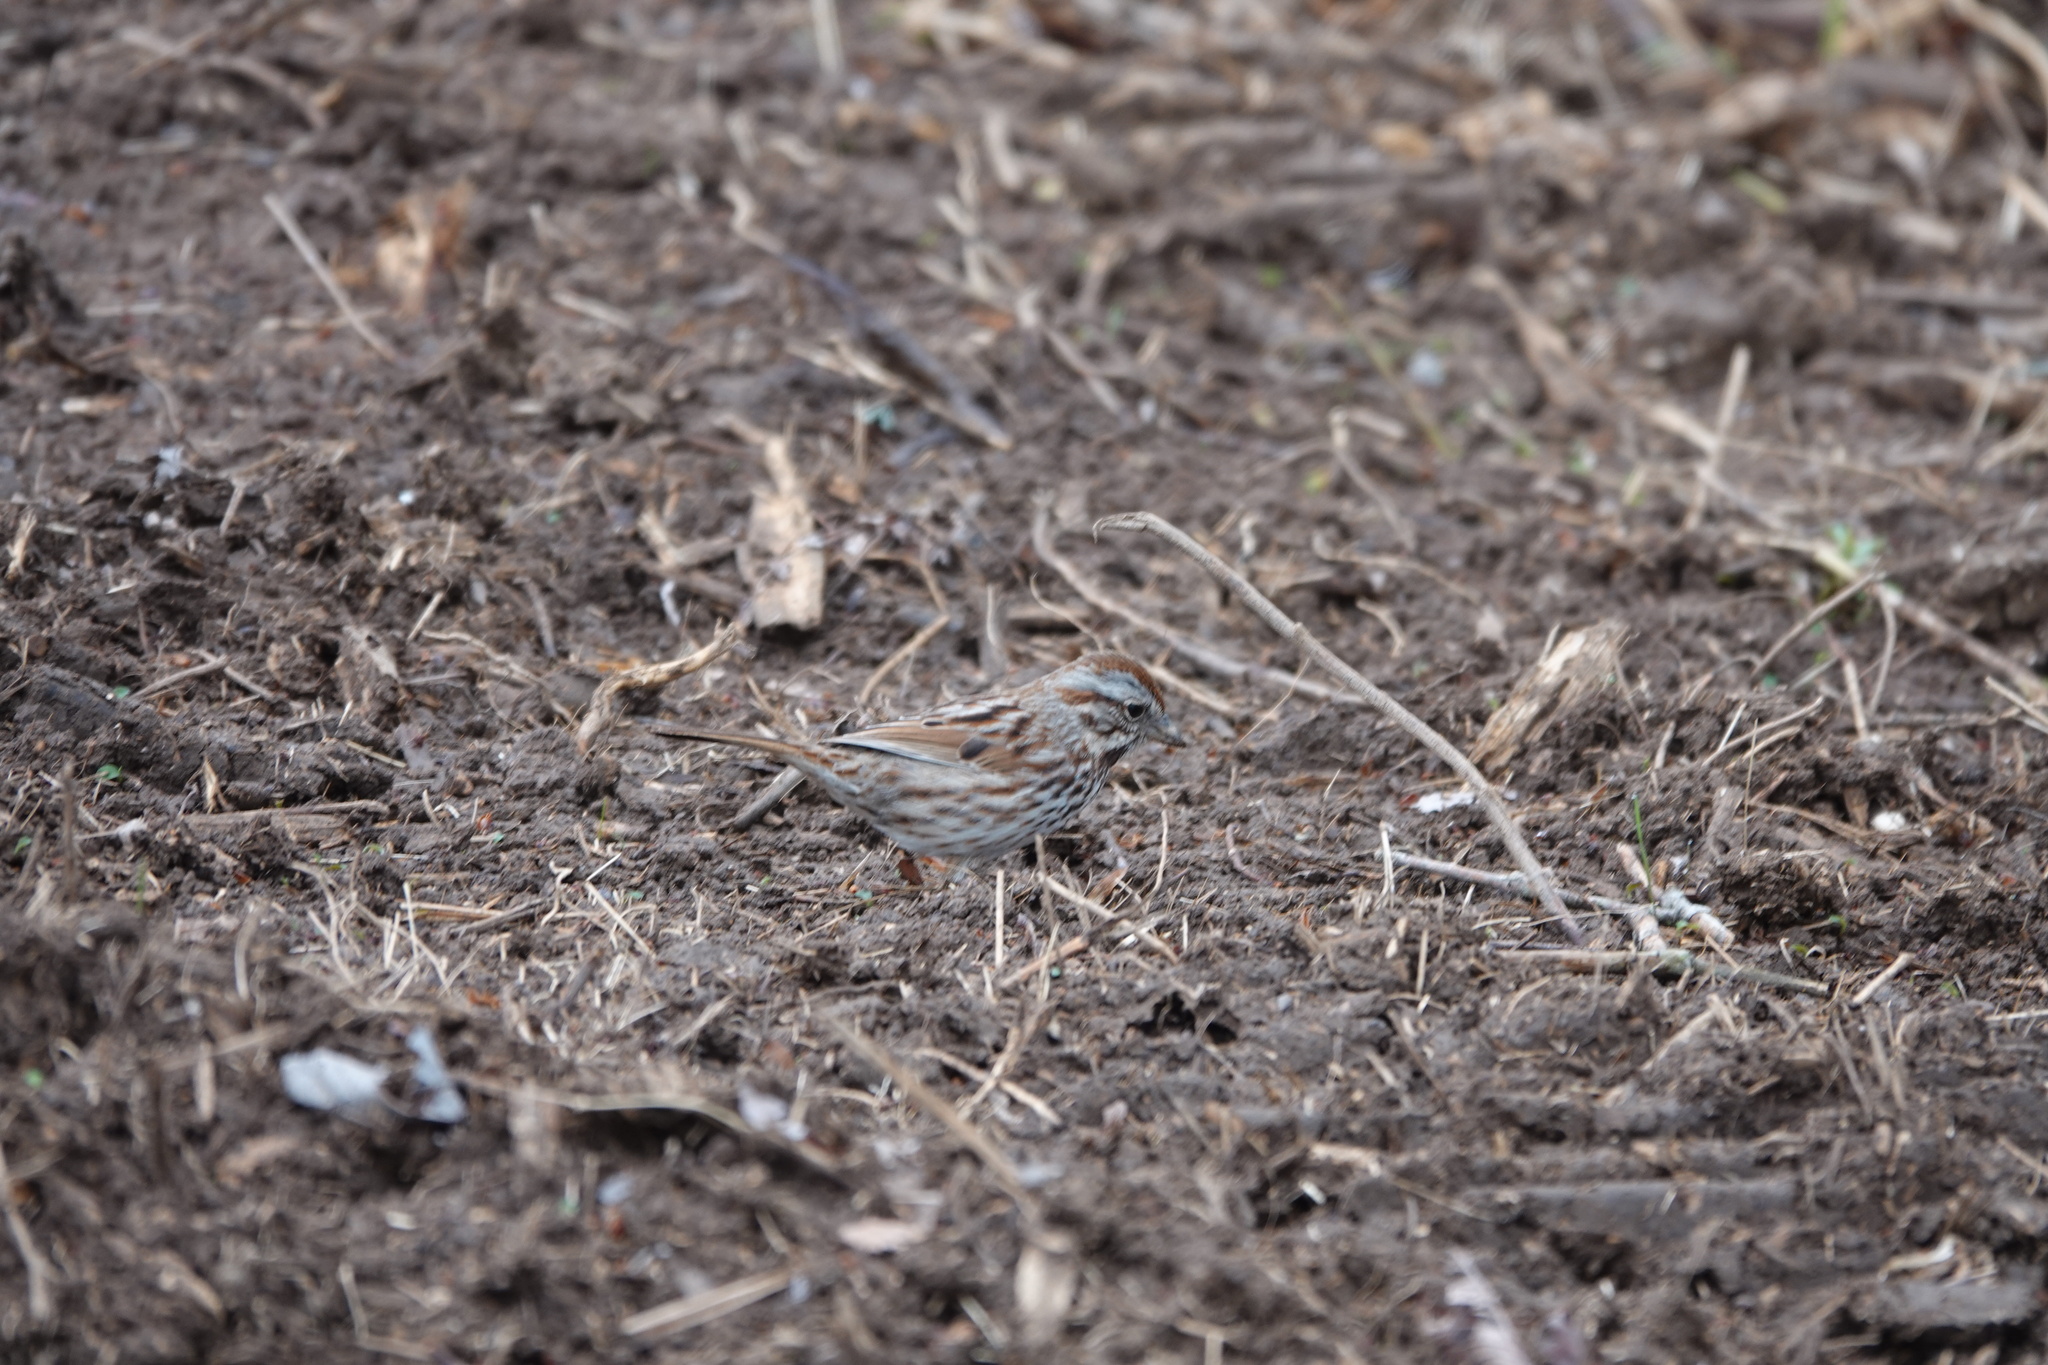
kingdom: Animalia
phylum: Chordata
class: Aves
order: Passeriformes
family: Passerellidae
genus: Melospiza
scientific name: Melospiza melodia
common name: Song sparrow
